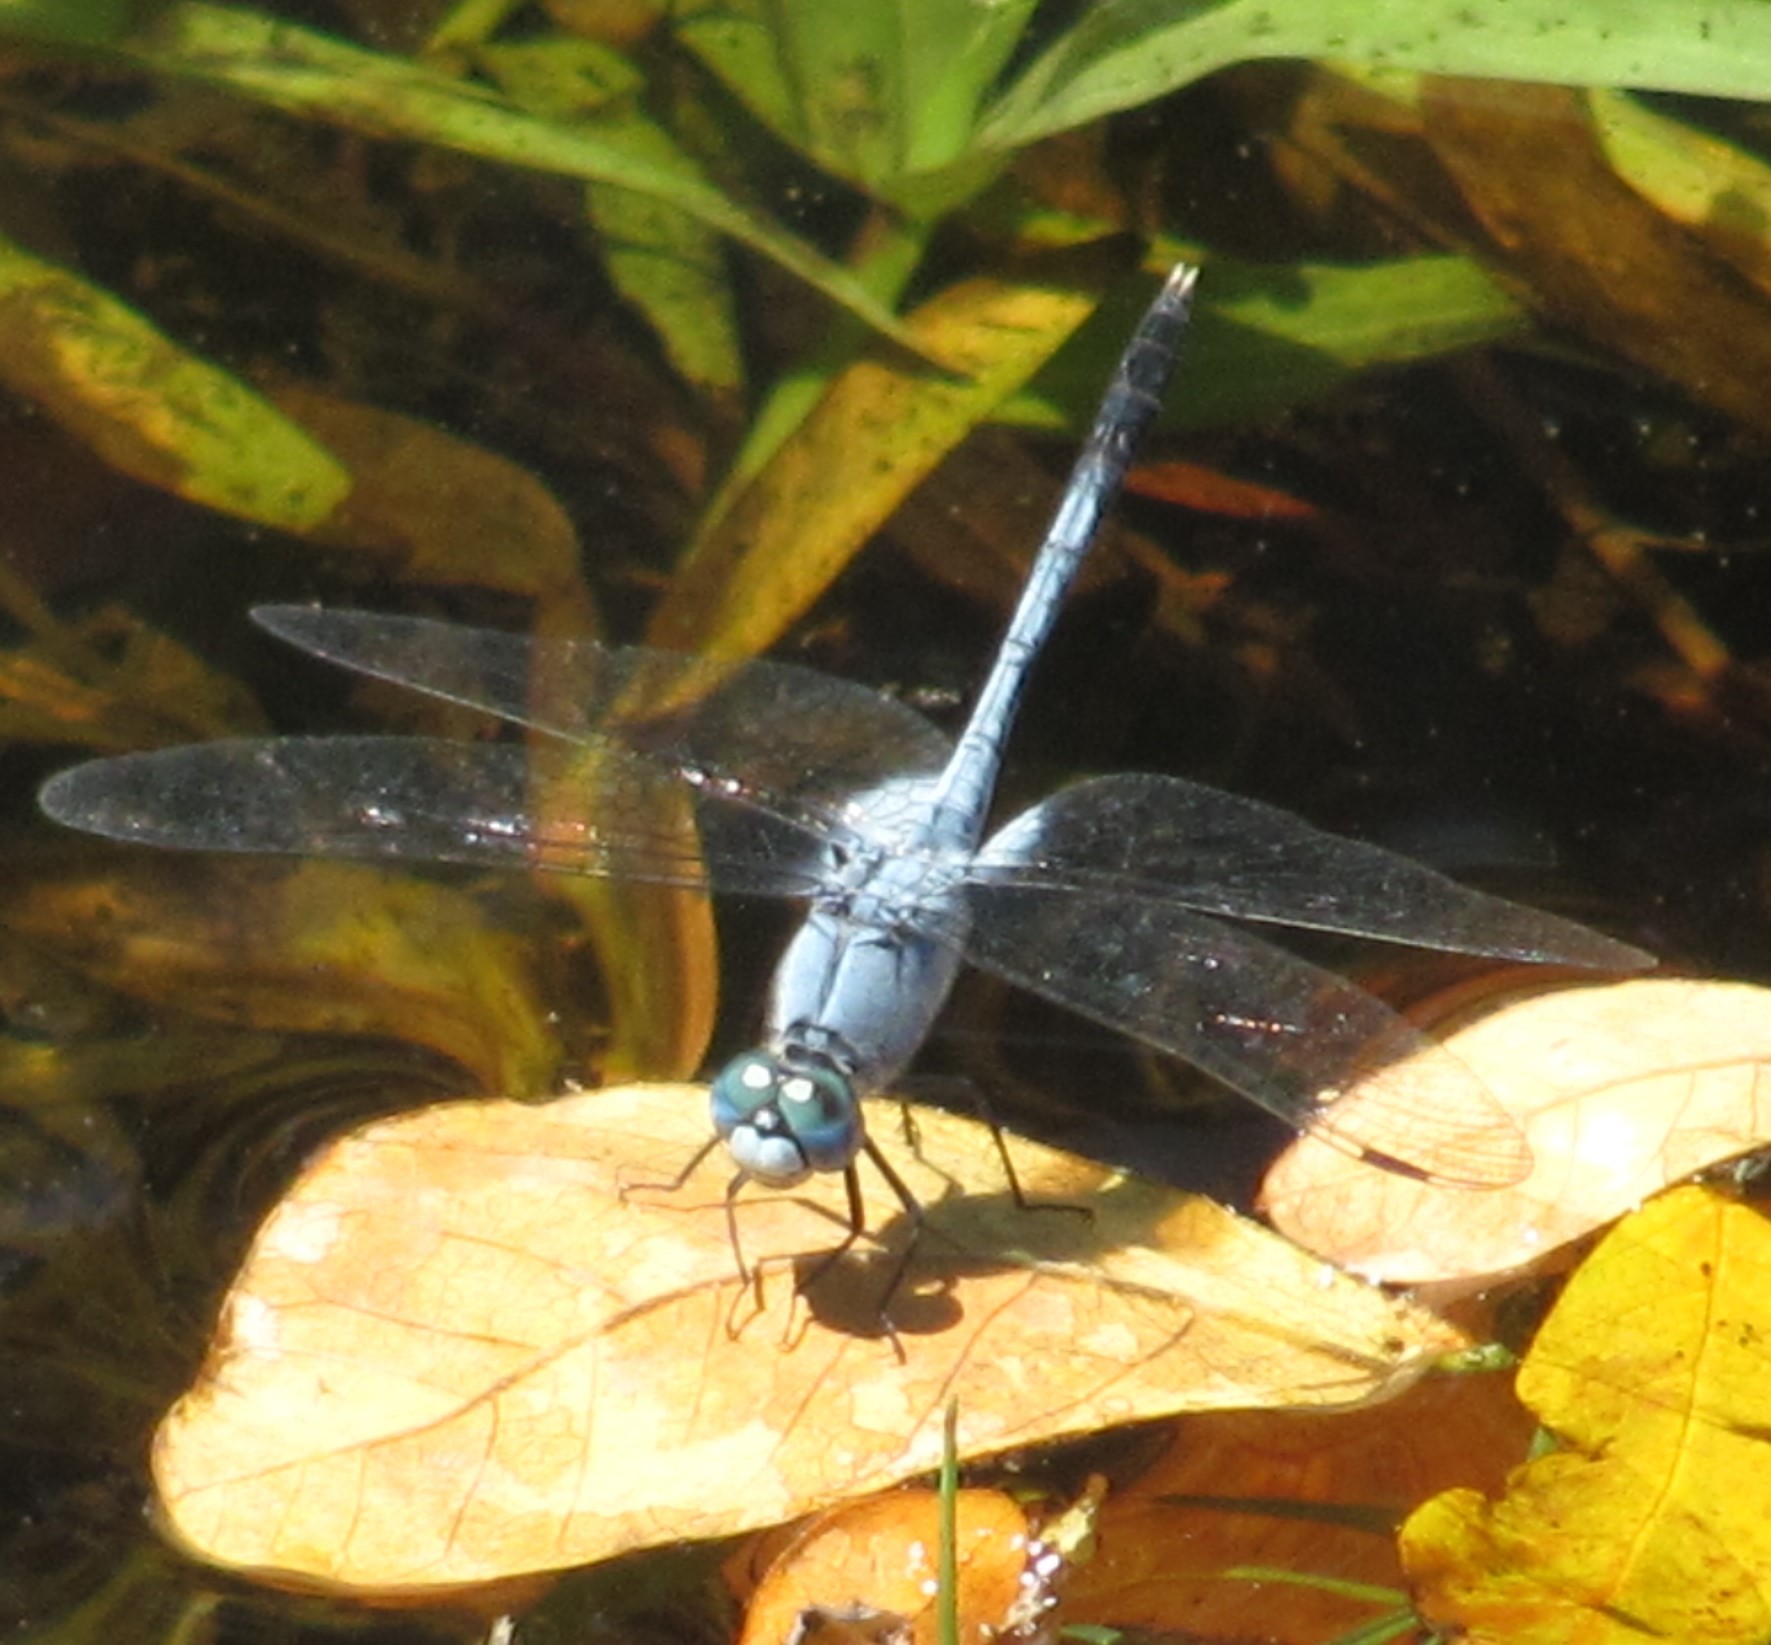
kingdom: Animalia
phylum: Arthropoda
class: Insecta
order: Odonata
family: Libellulidae
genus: Diplacodes
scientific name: Diplacodes trivialis
